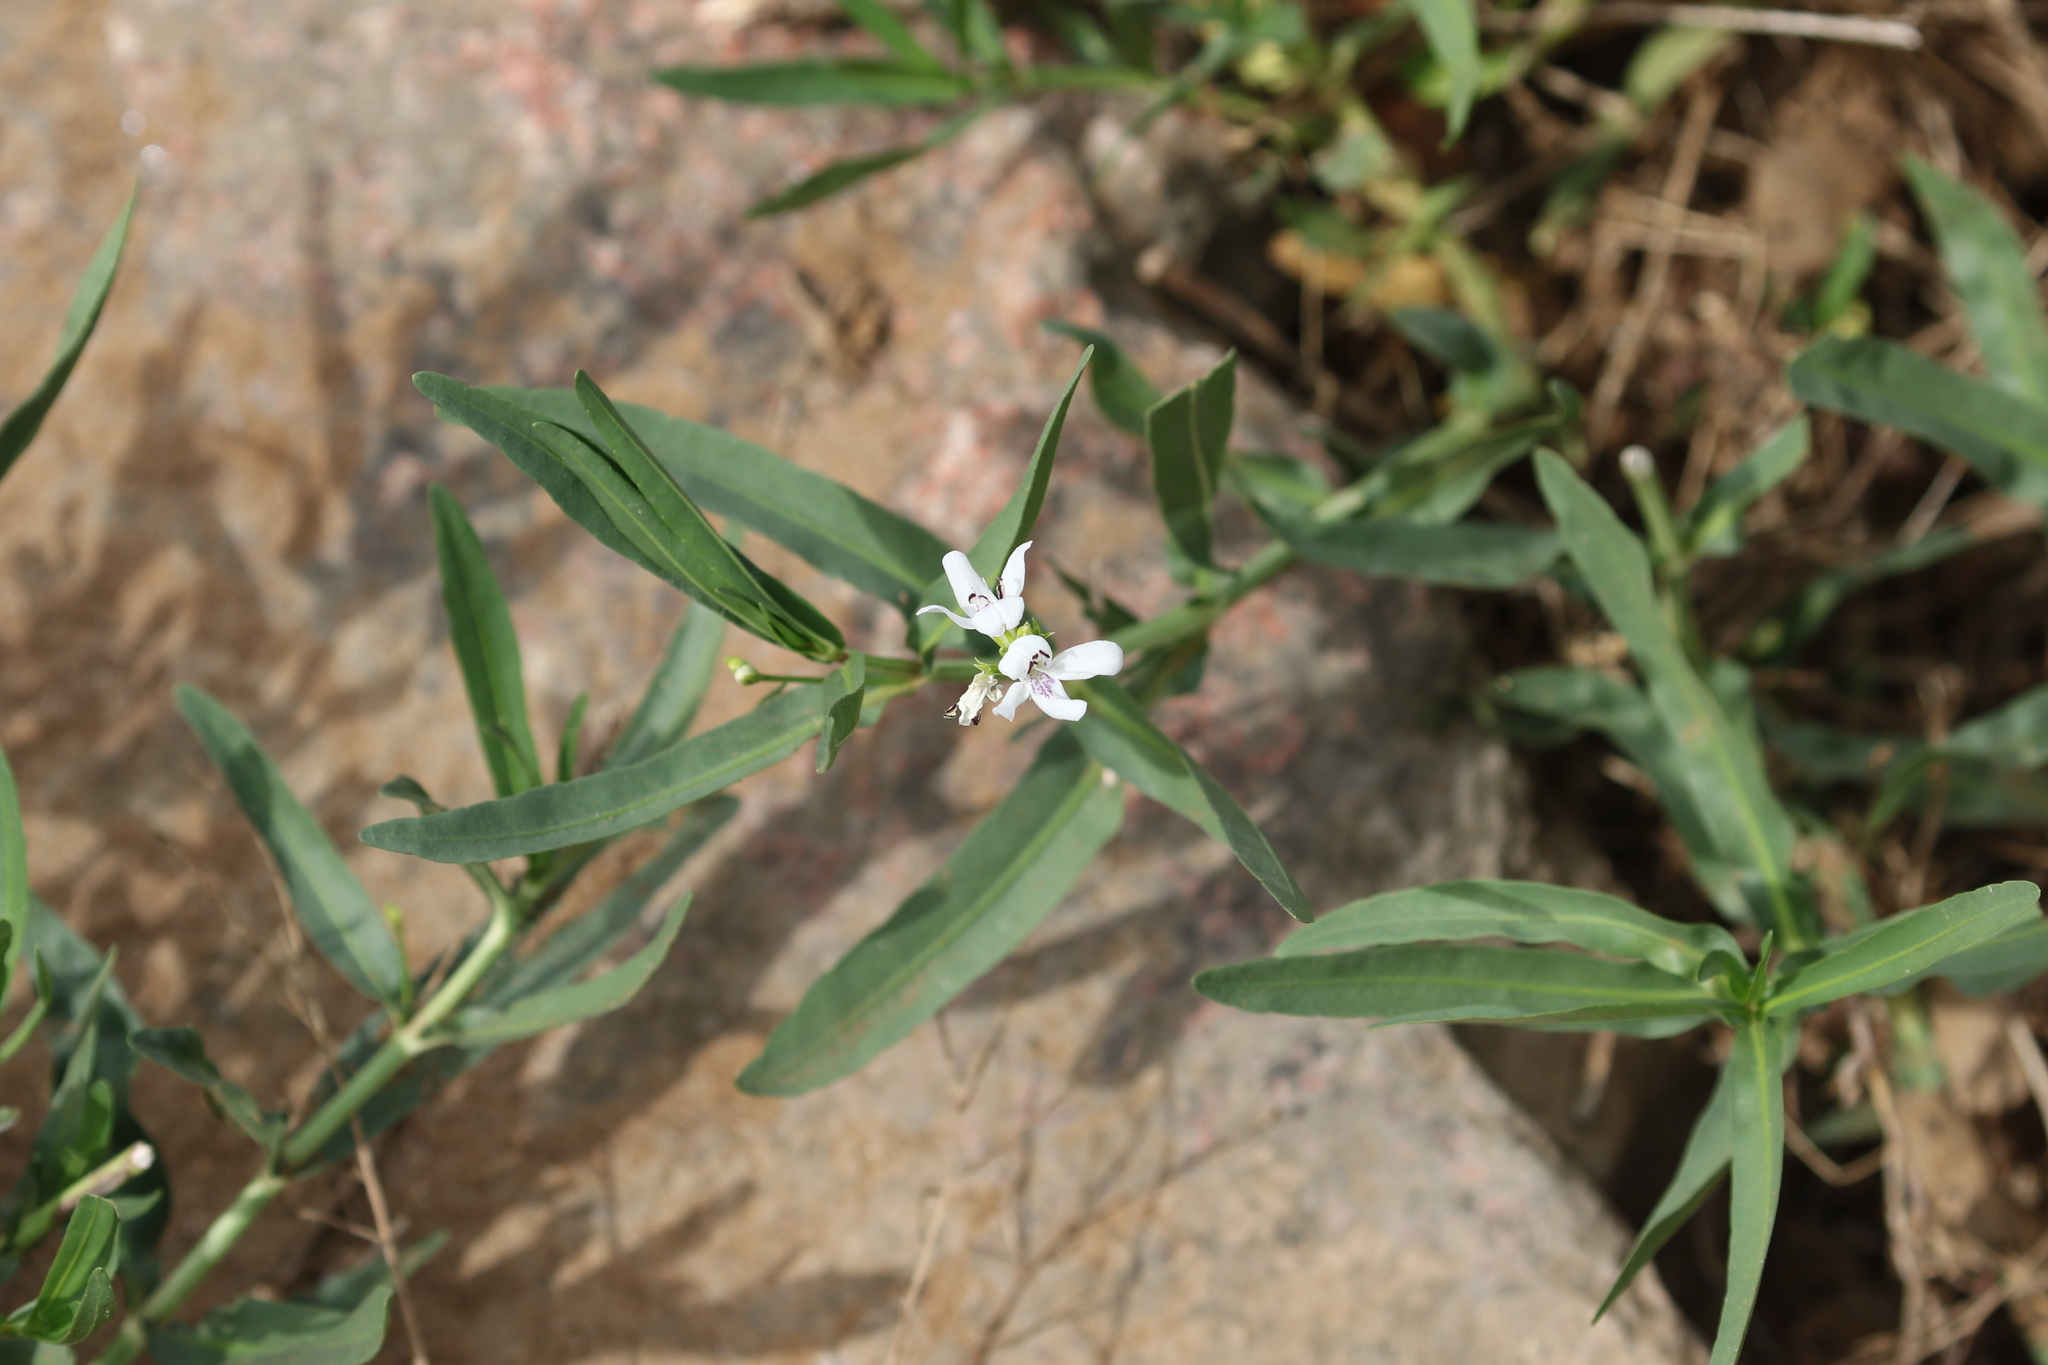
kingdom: Plantae
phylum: Tracheophyta
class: Magnoliopsida
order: Lamiales
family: Acanthaceae
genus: Dianthera
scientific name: Dianthera americana
